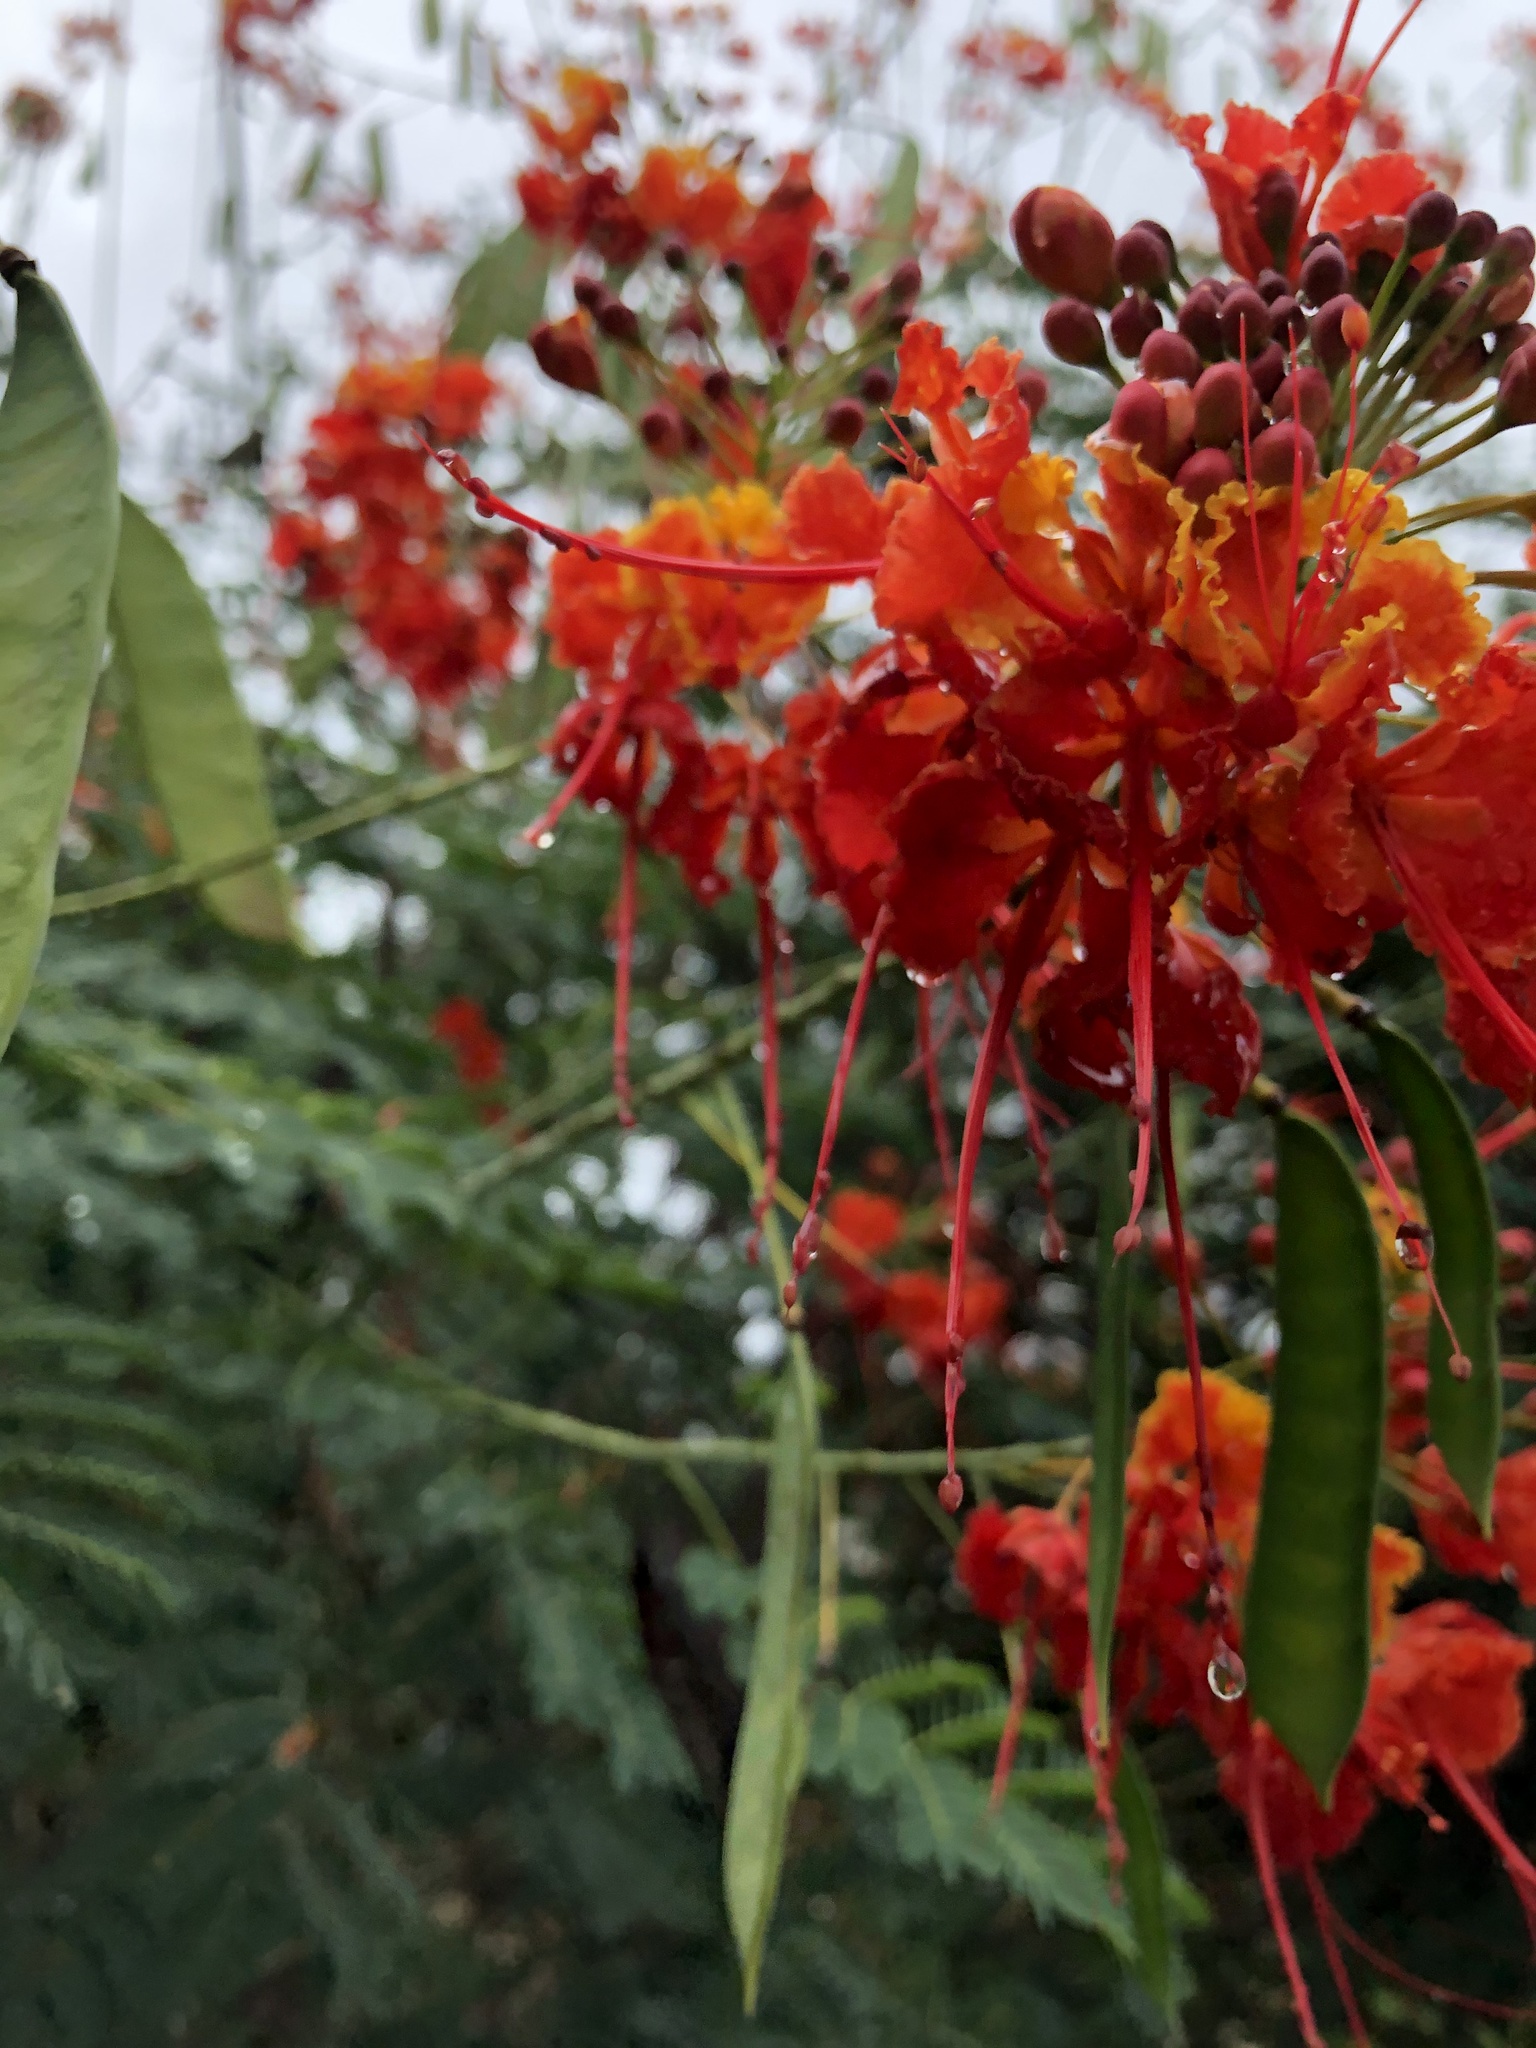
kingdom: Plantae
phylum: Tracheophyta
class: Magnoliopsida
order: Fabales
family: Fabaceae
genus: Caesalpinia
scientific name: Caesalpinia pulcherrima
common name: Pride-of-barbados
